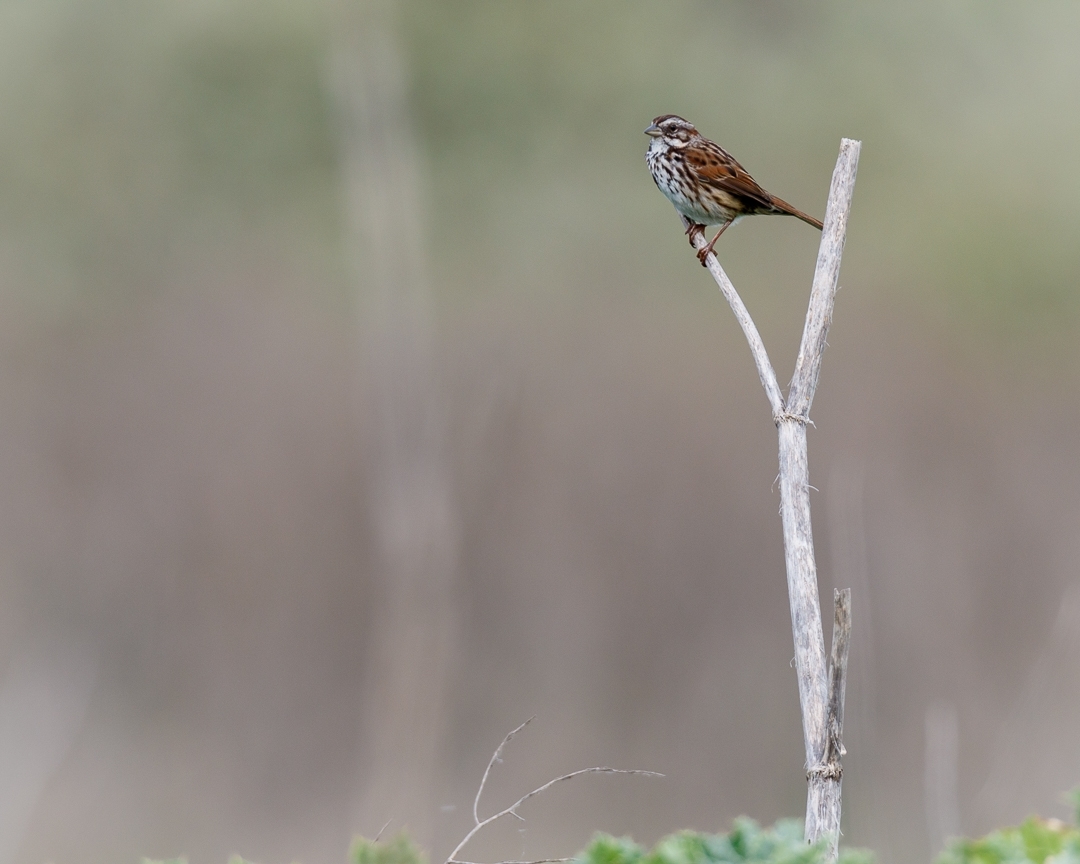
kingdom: Animalia
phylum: Chordata
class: Aves
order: Passeriformes
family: Passerellidae
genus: Melospiza
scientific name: Melospiza melodia
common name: Song sparrow
